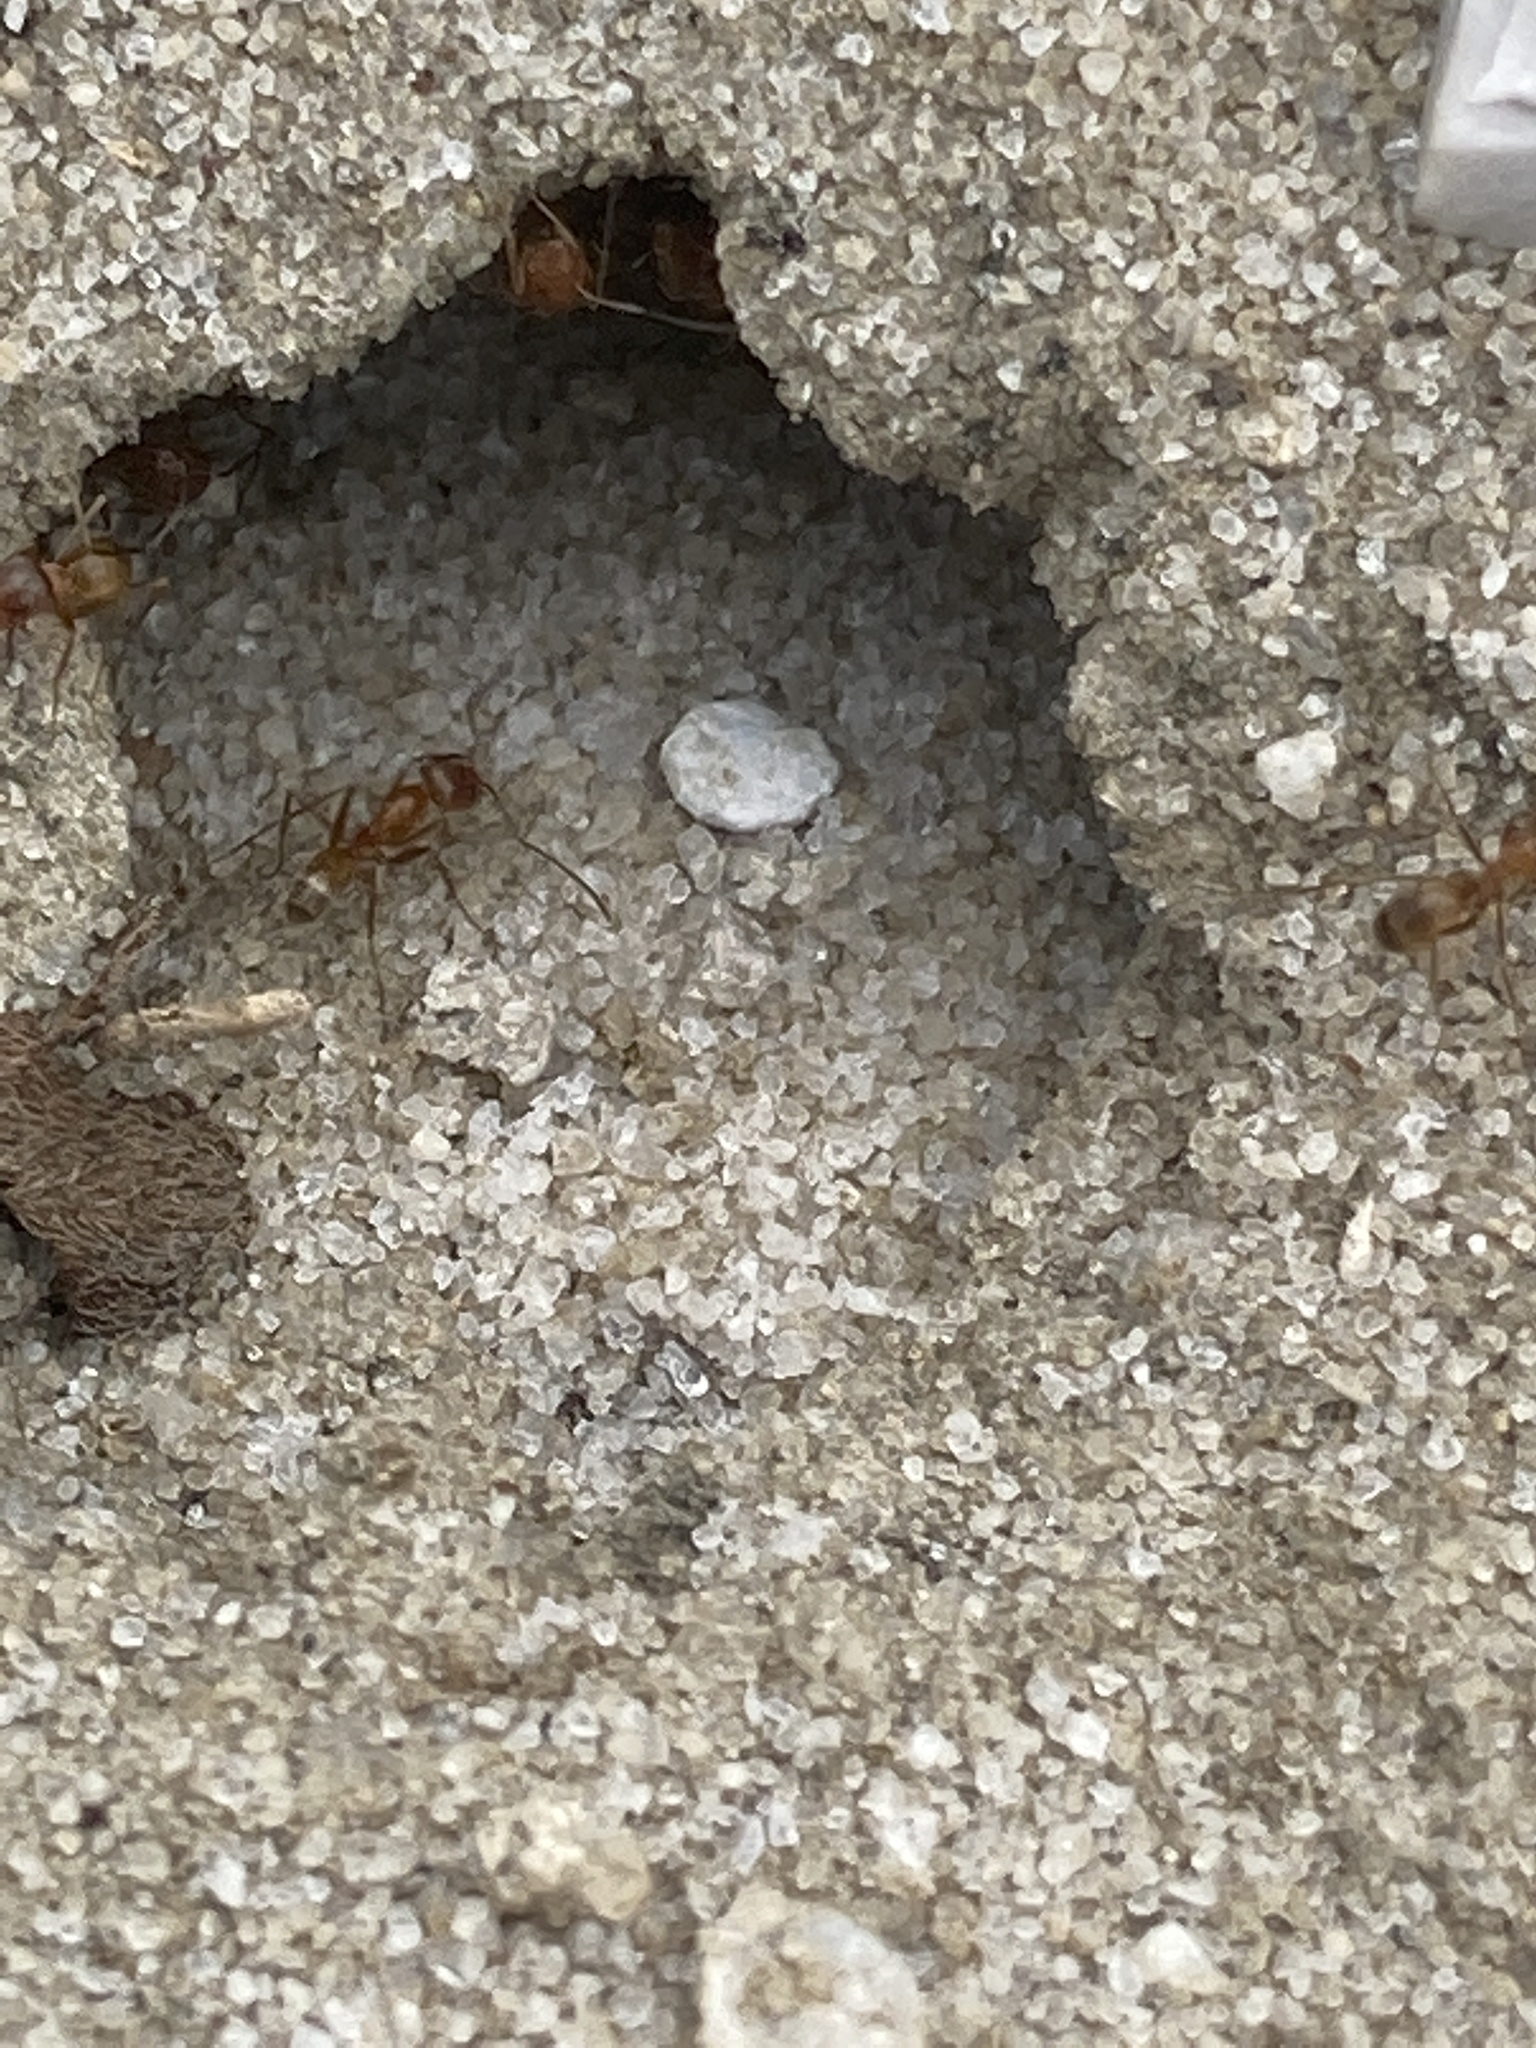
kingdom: Animalia
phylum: Arthropoda
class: Insecta
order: Hymenoptera
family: Formicidae
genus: Dorymyrmex
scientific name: Dorymyrmex bureni
